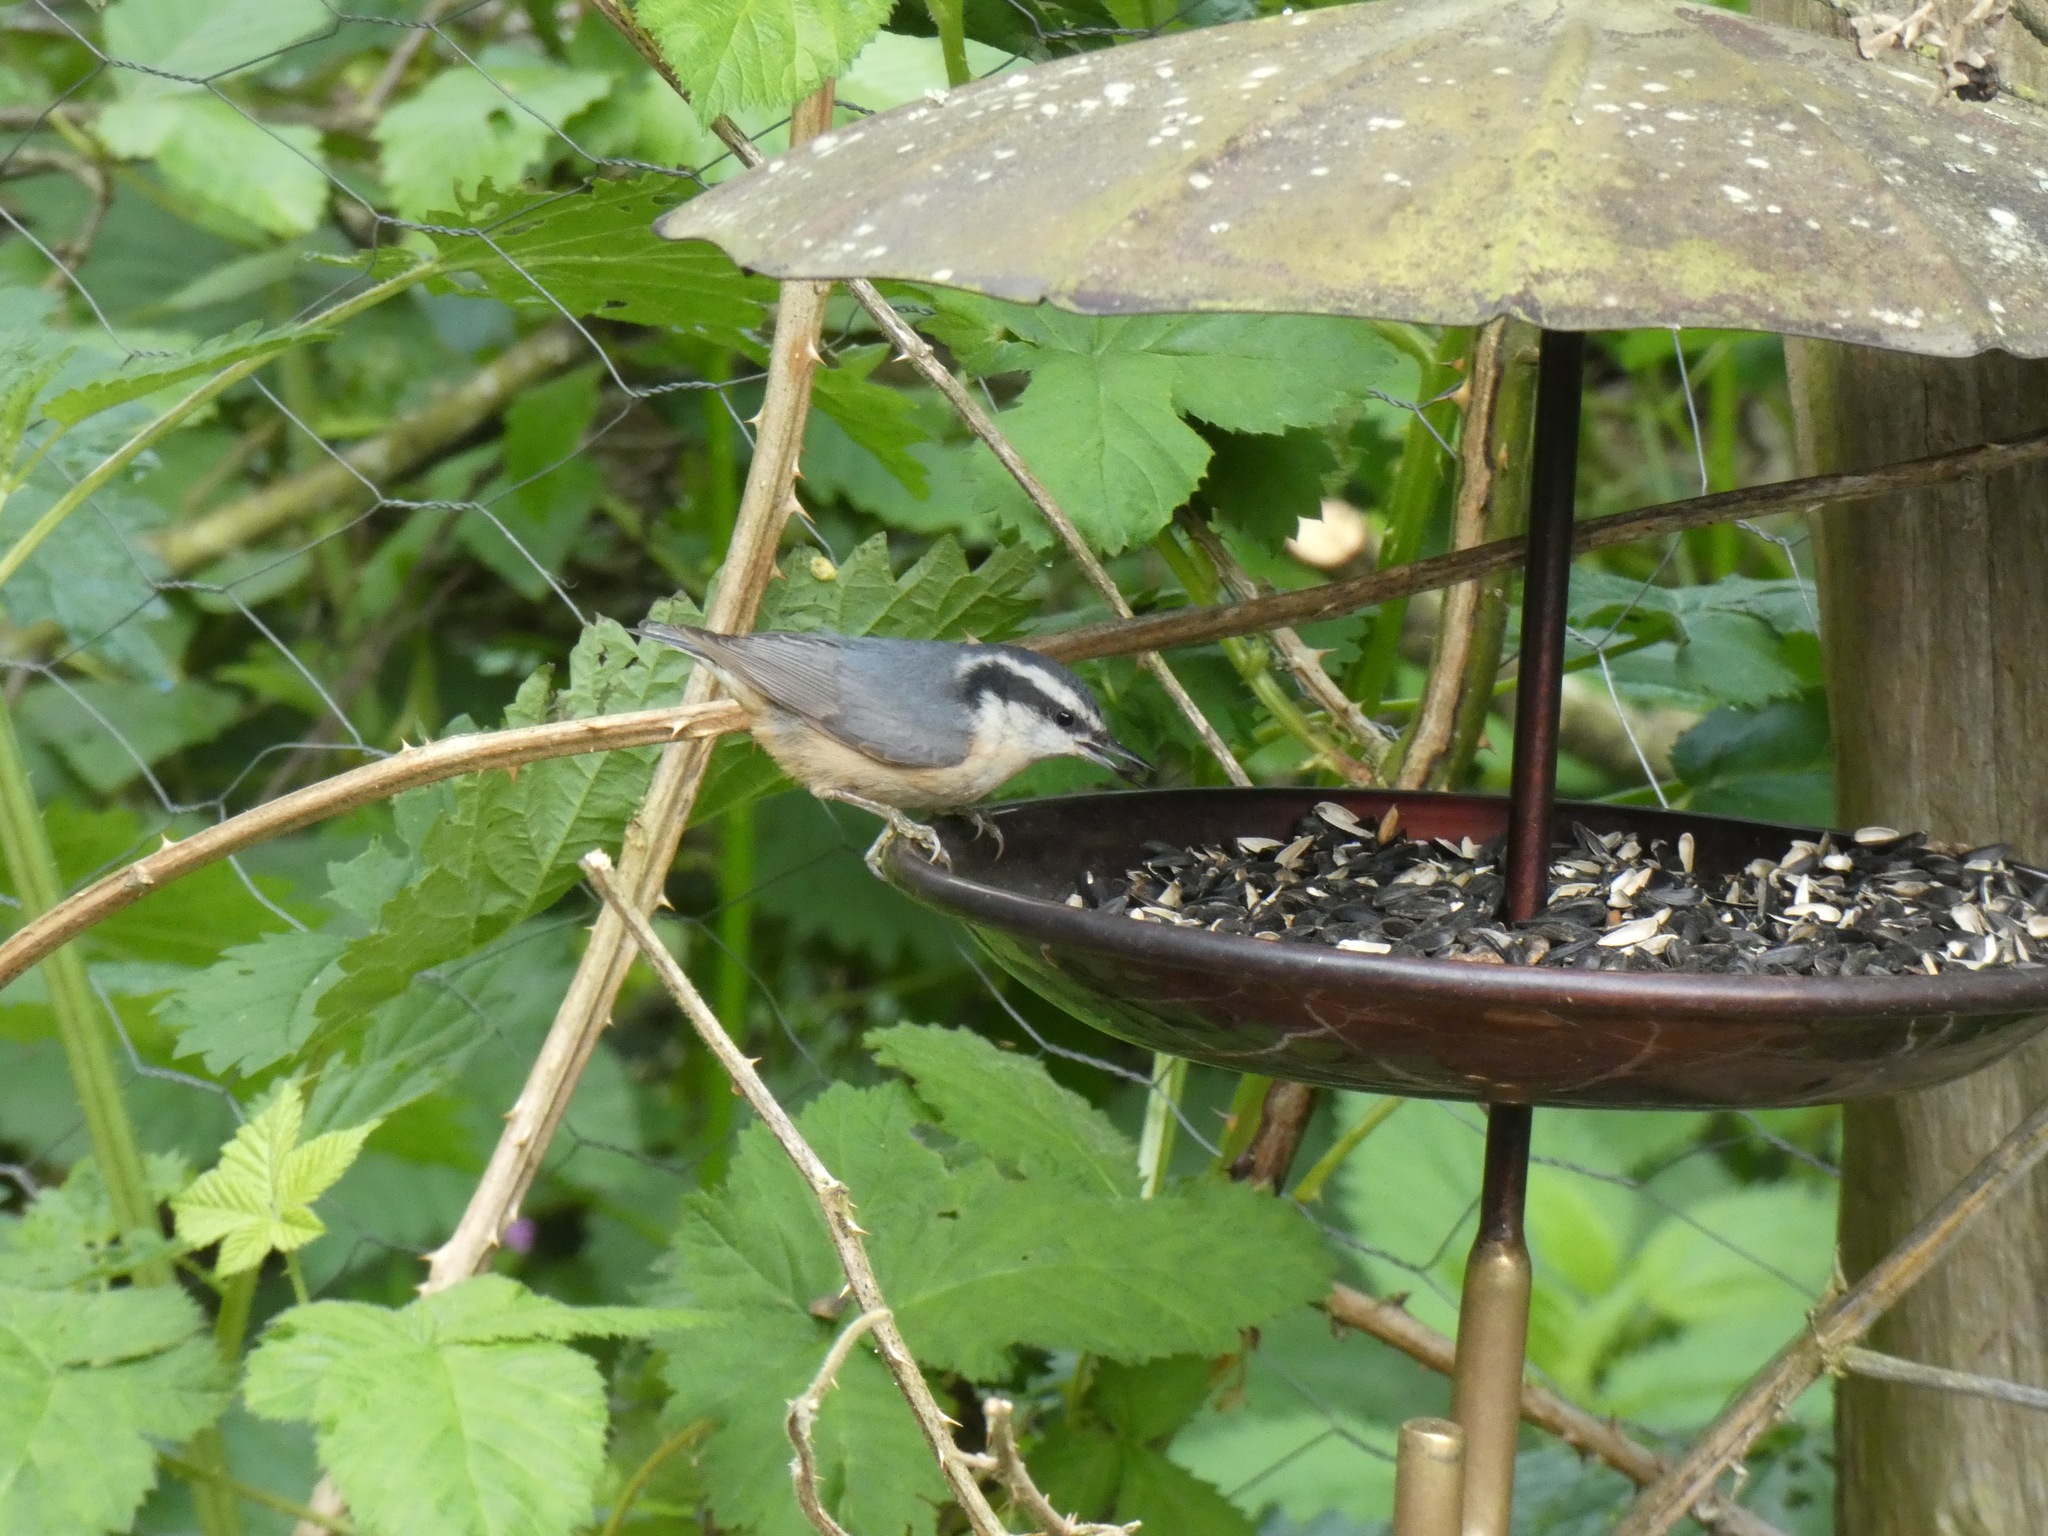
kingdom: Animalia
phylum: Chordata
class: Aves
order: Passeriformes
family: Sittidae
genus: Sitta
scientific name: Sitta canadensis
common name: Red-breasted nuthatch
